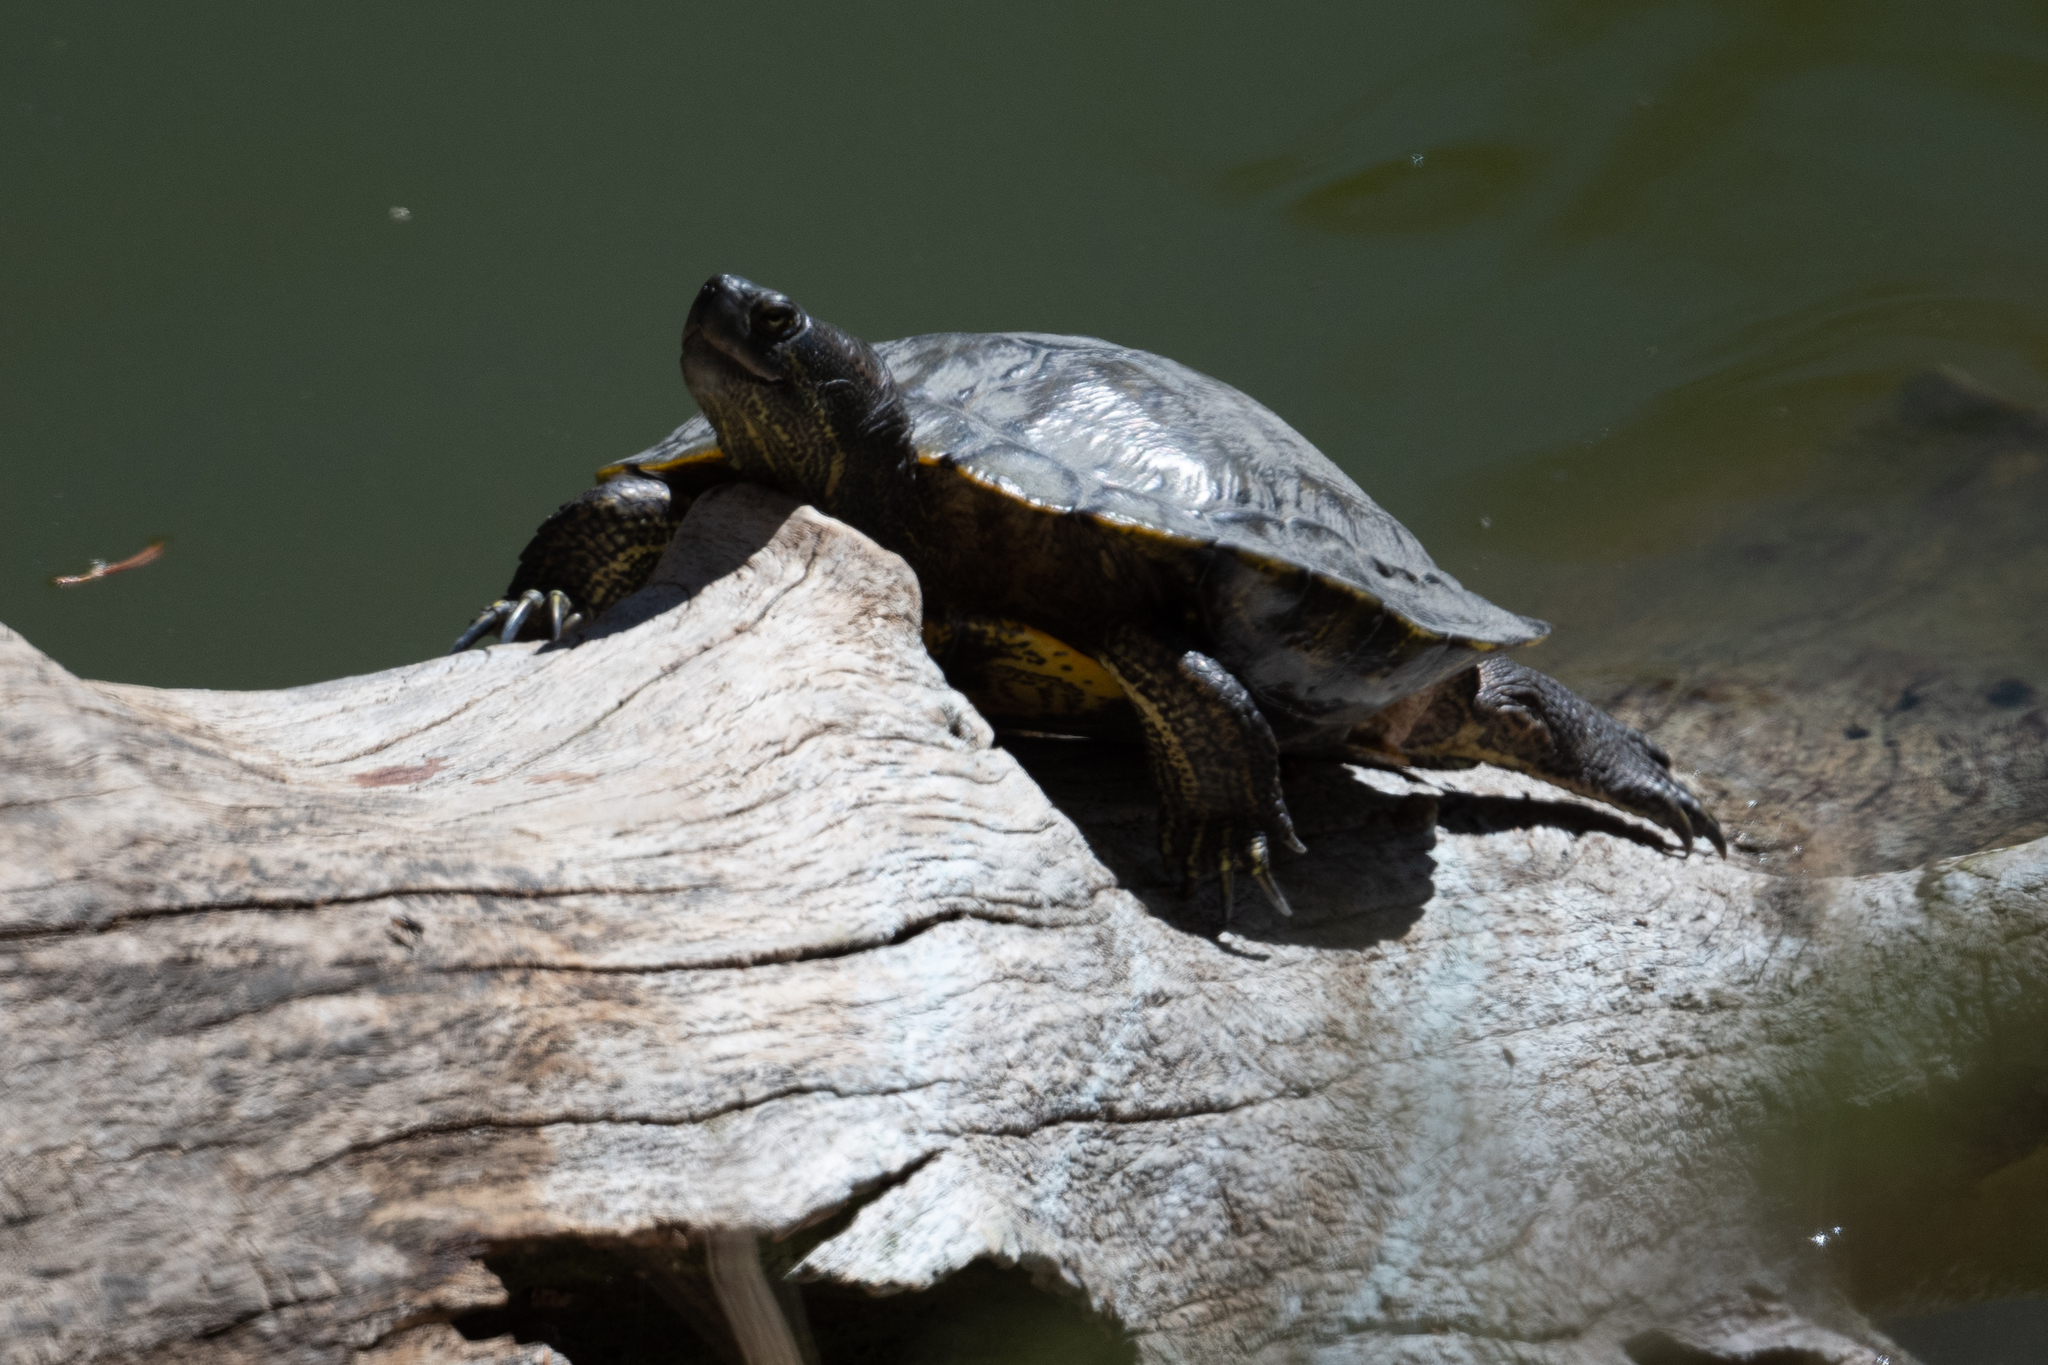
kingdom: Animalia
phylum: Chordata
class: Testudines
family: Emydidae
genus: Trachemys
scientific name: Trachemys scripta
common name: Slider
